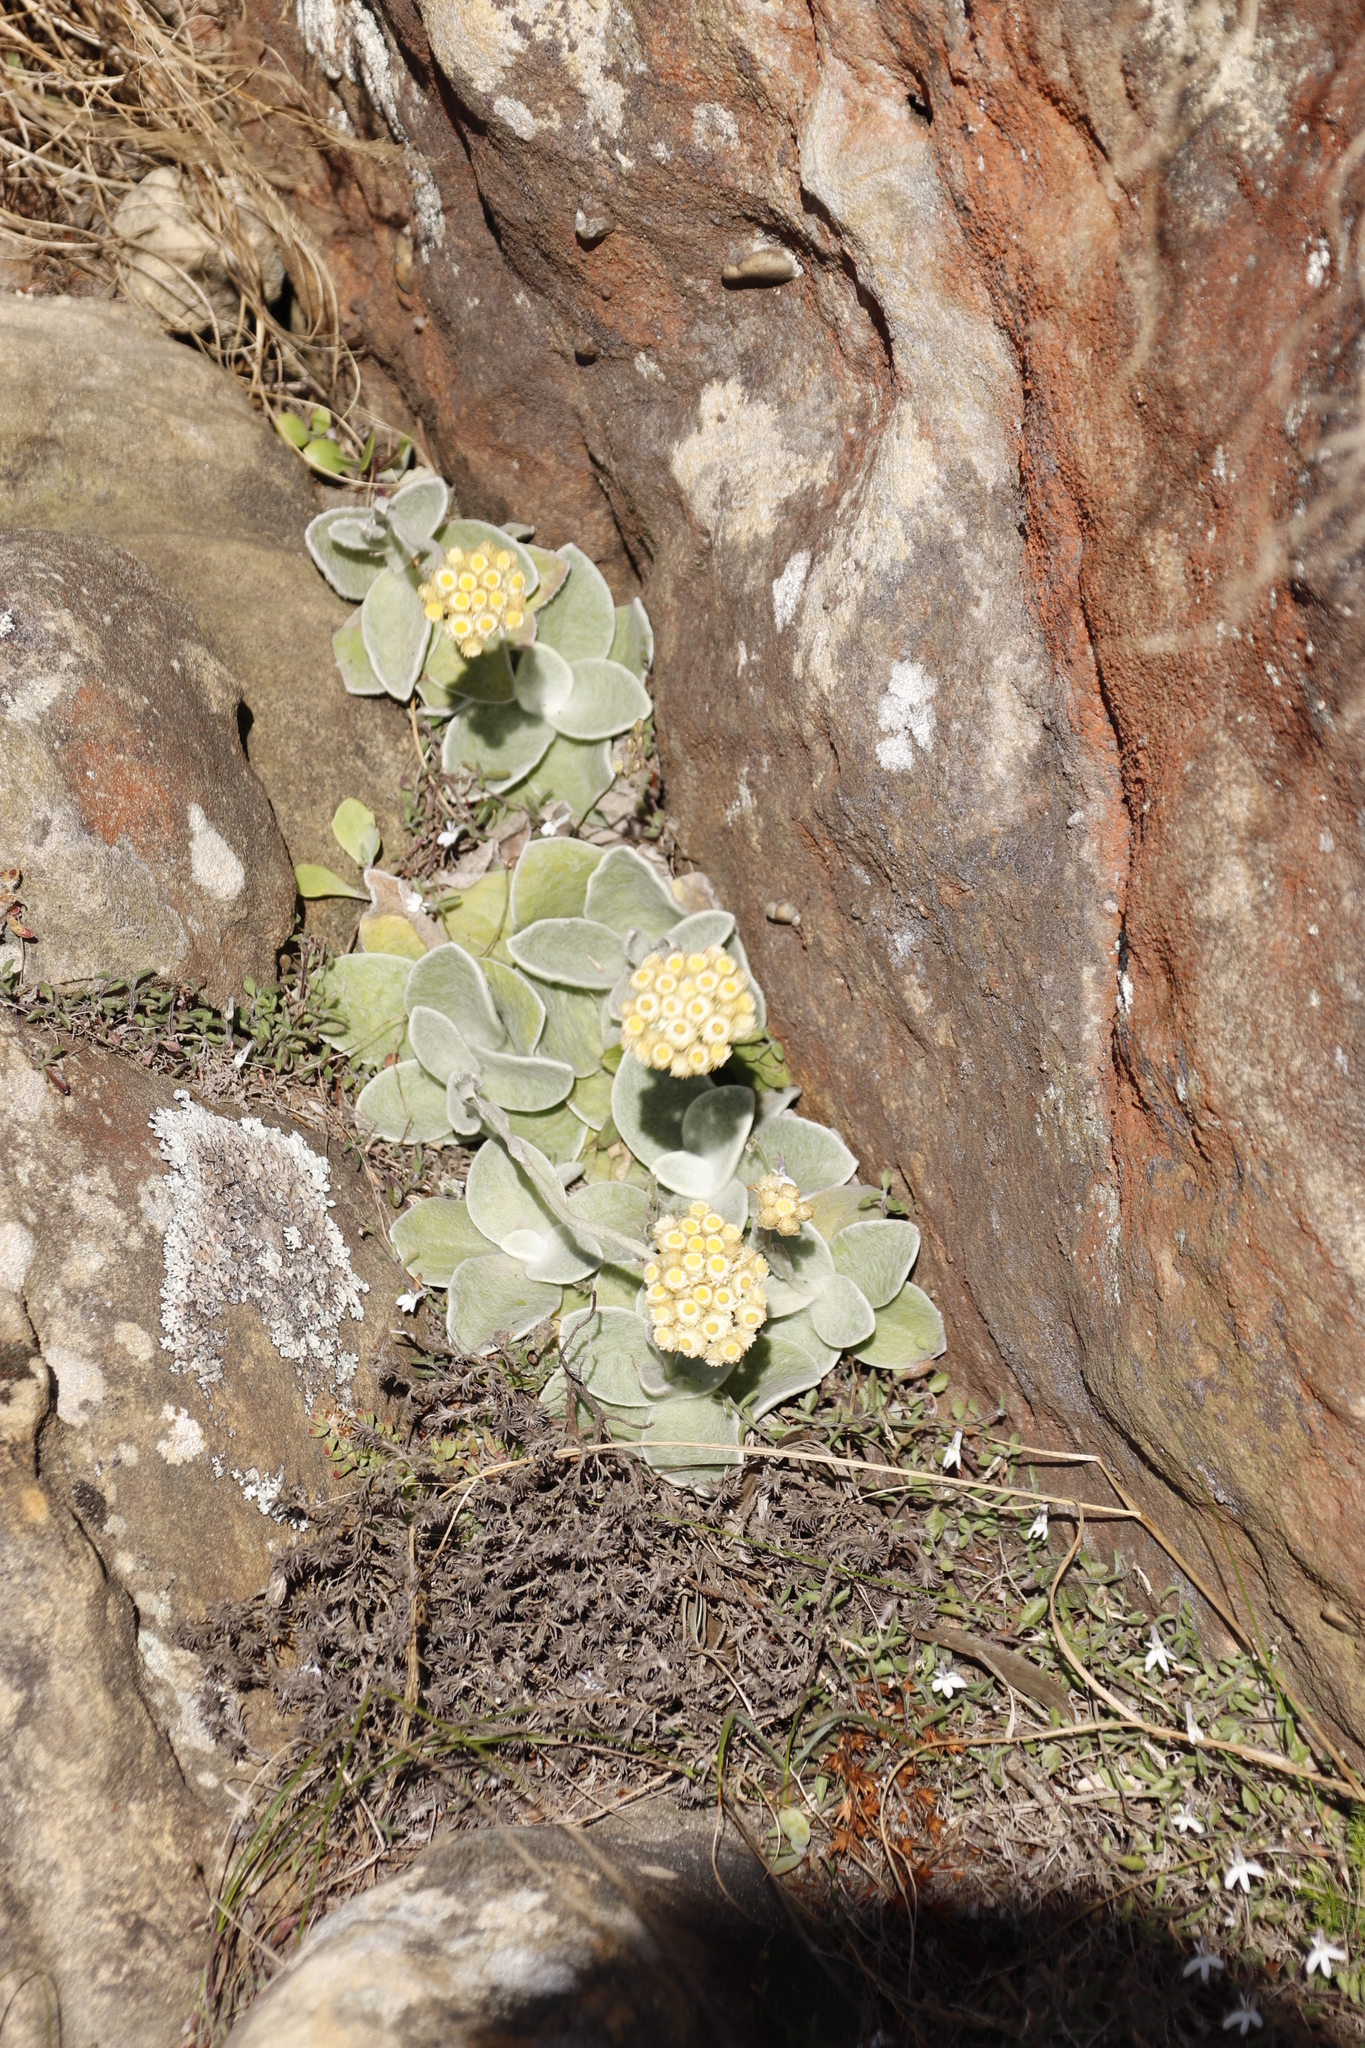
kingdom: Plantae
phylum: Tracheophyta
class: Magnoliopsida
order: Asterales
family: Asteraceae
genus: Helichrysum
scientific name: Helichrysum grandiflorum
